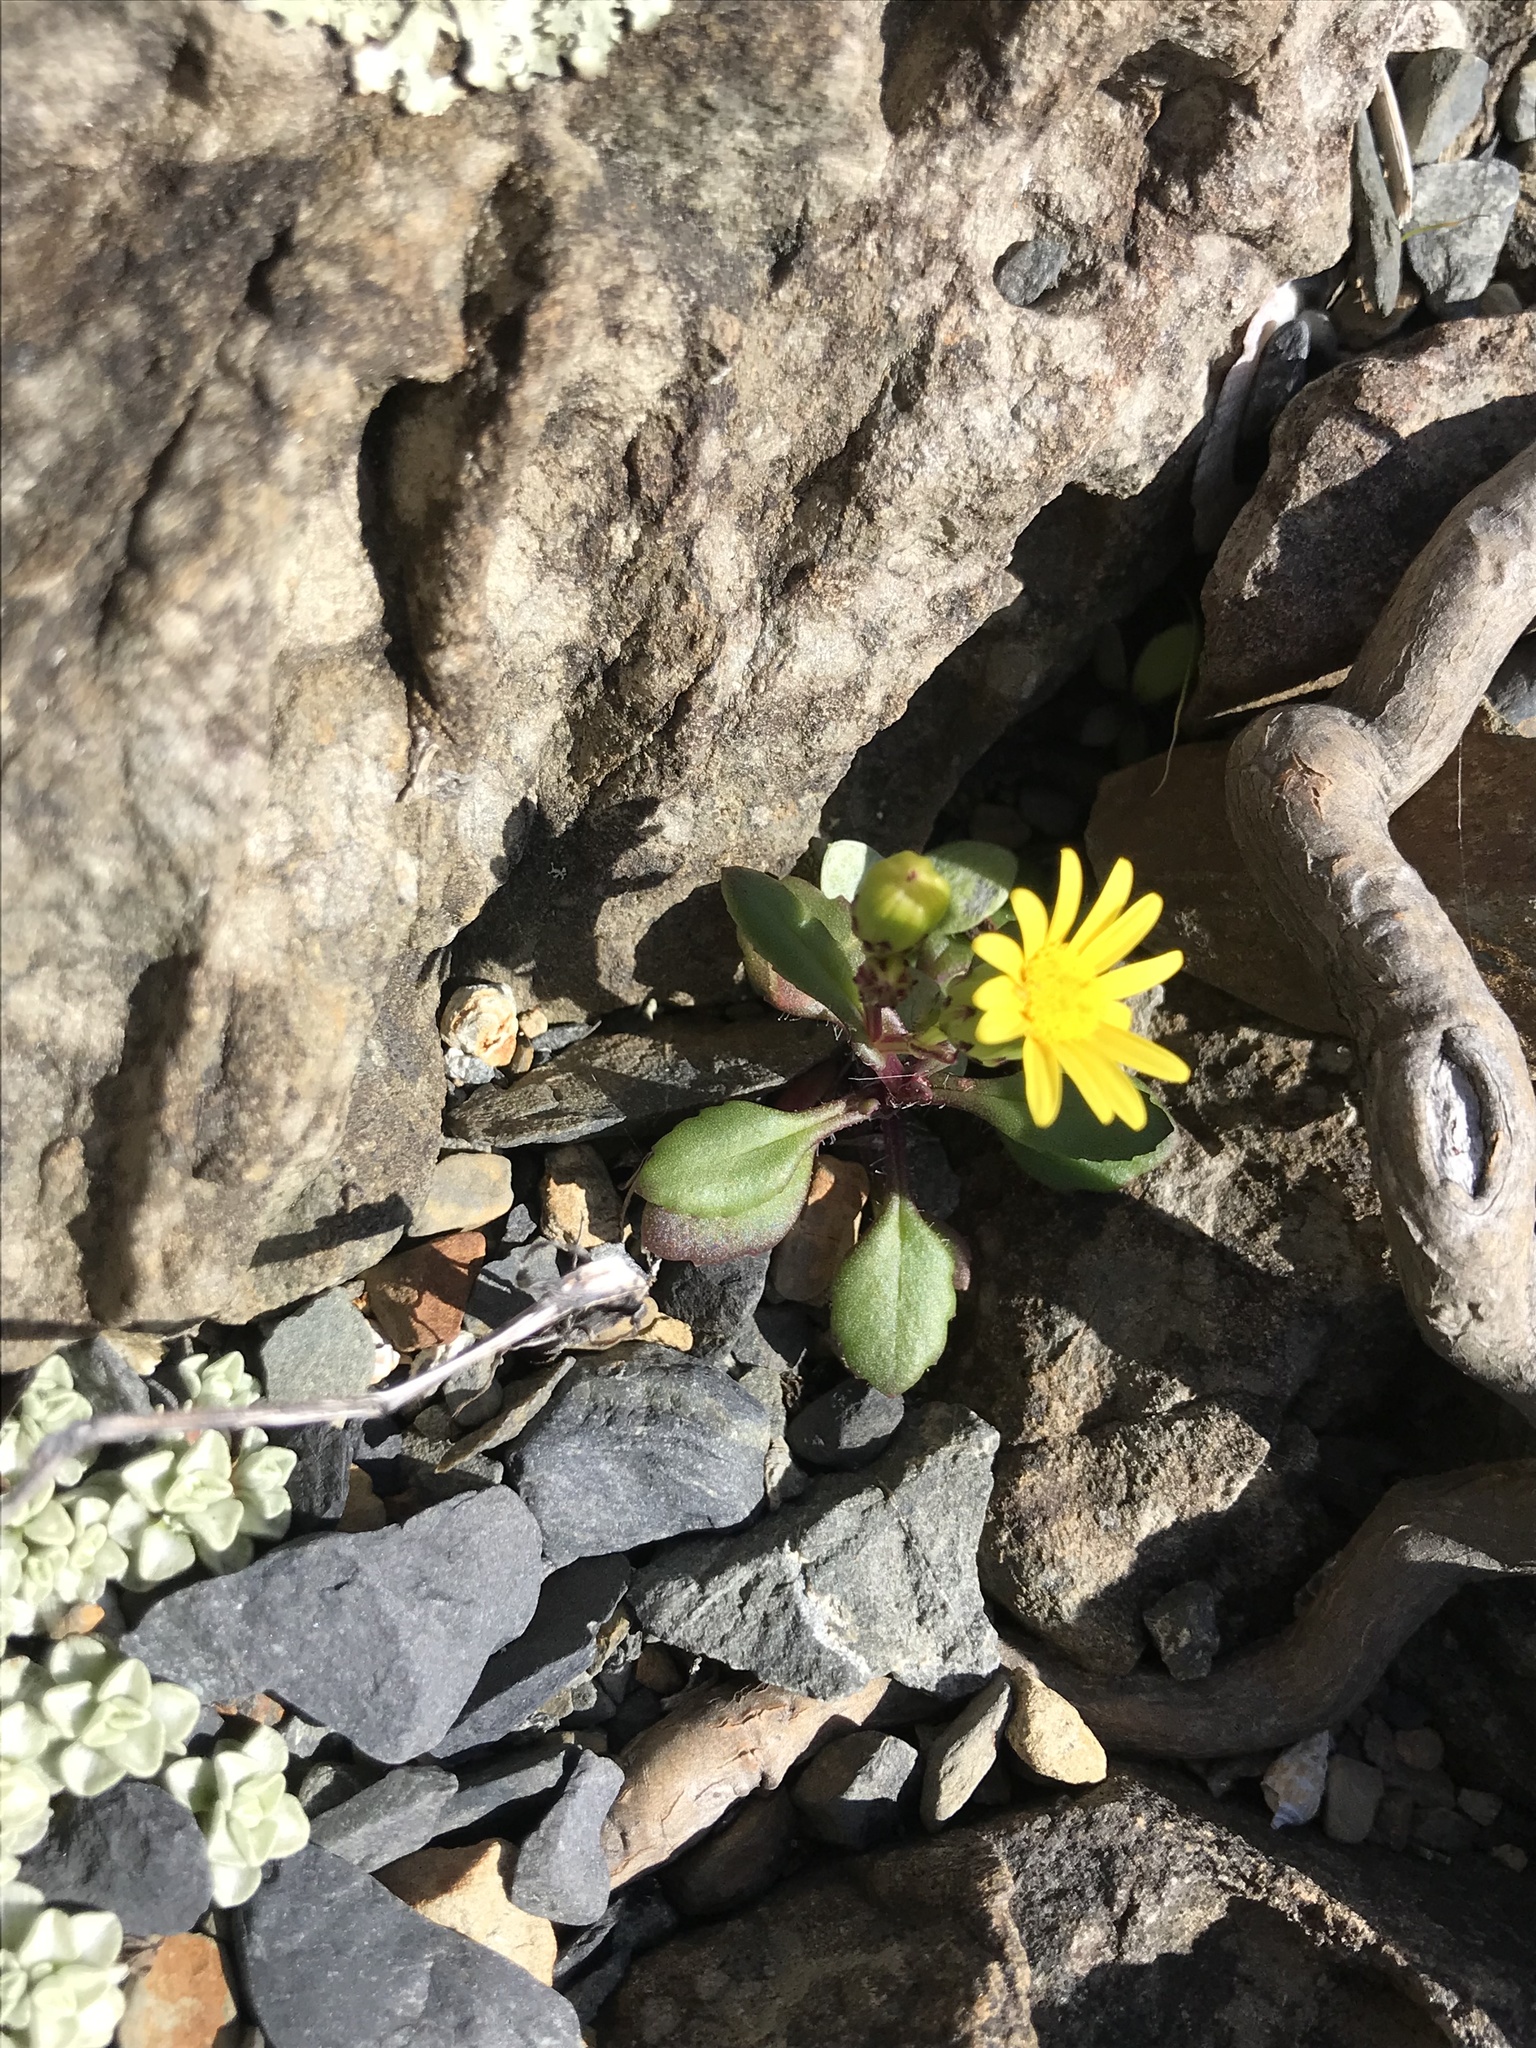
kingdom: Plantae
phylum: Tracheophyta
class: Magnoliopsida
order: Asterales
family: Asteraceae
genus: Senecio
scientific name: Senecio lautus
